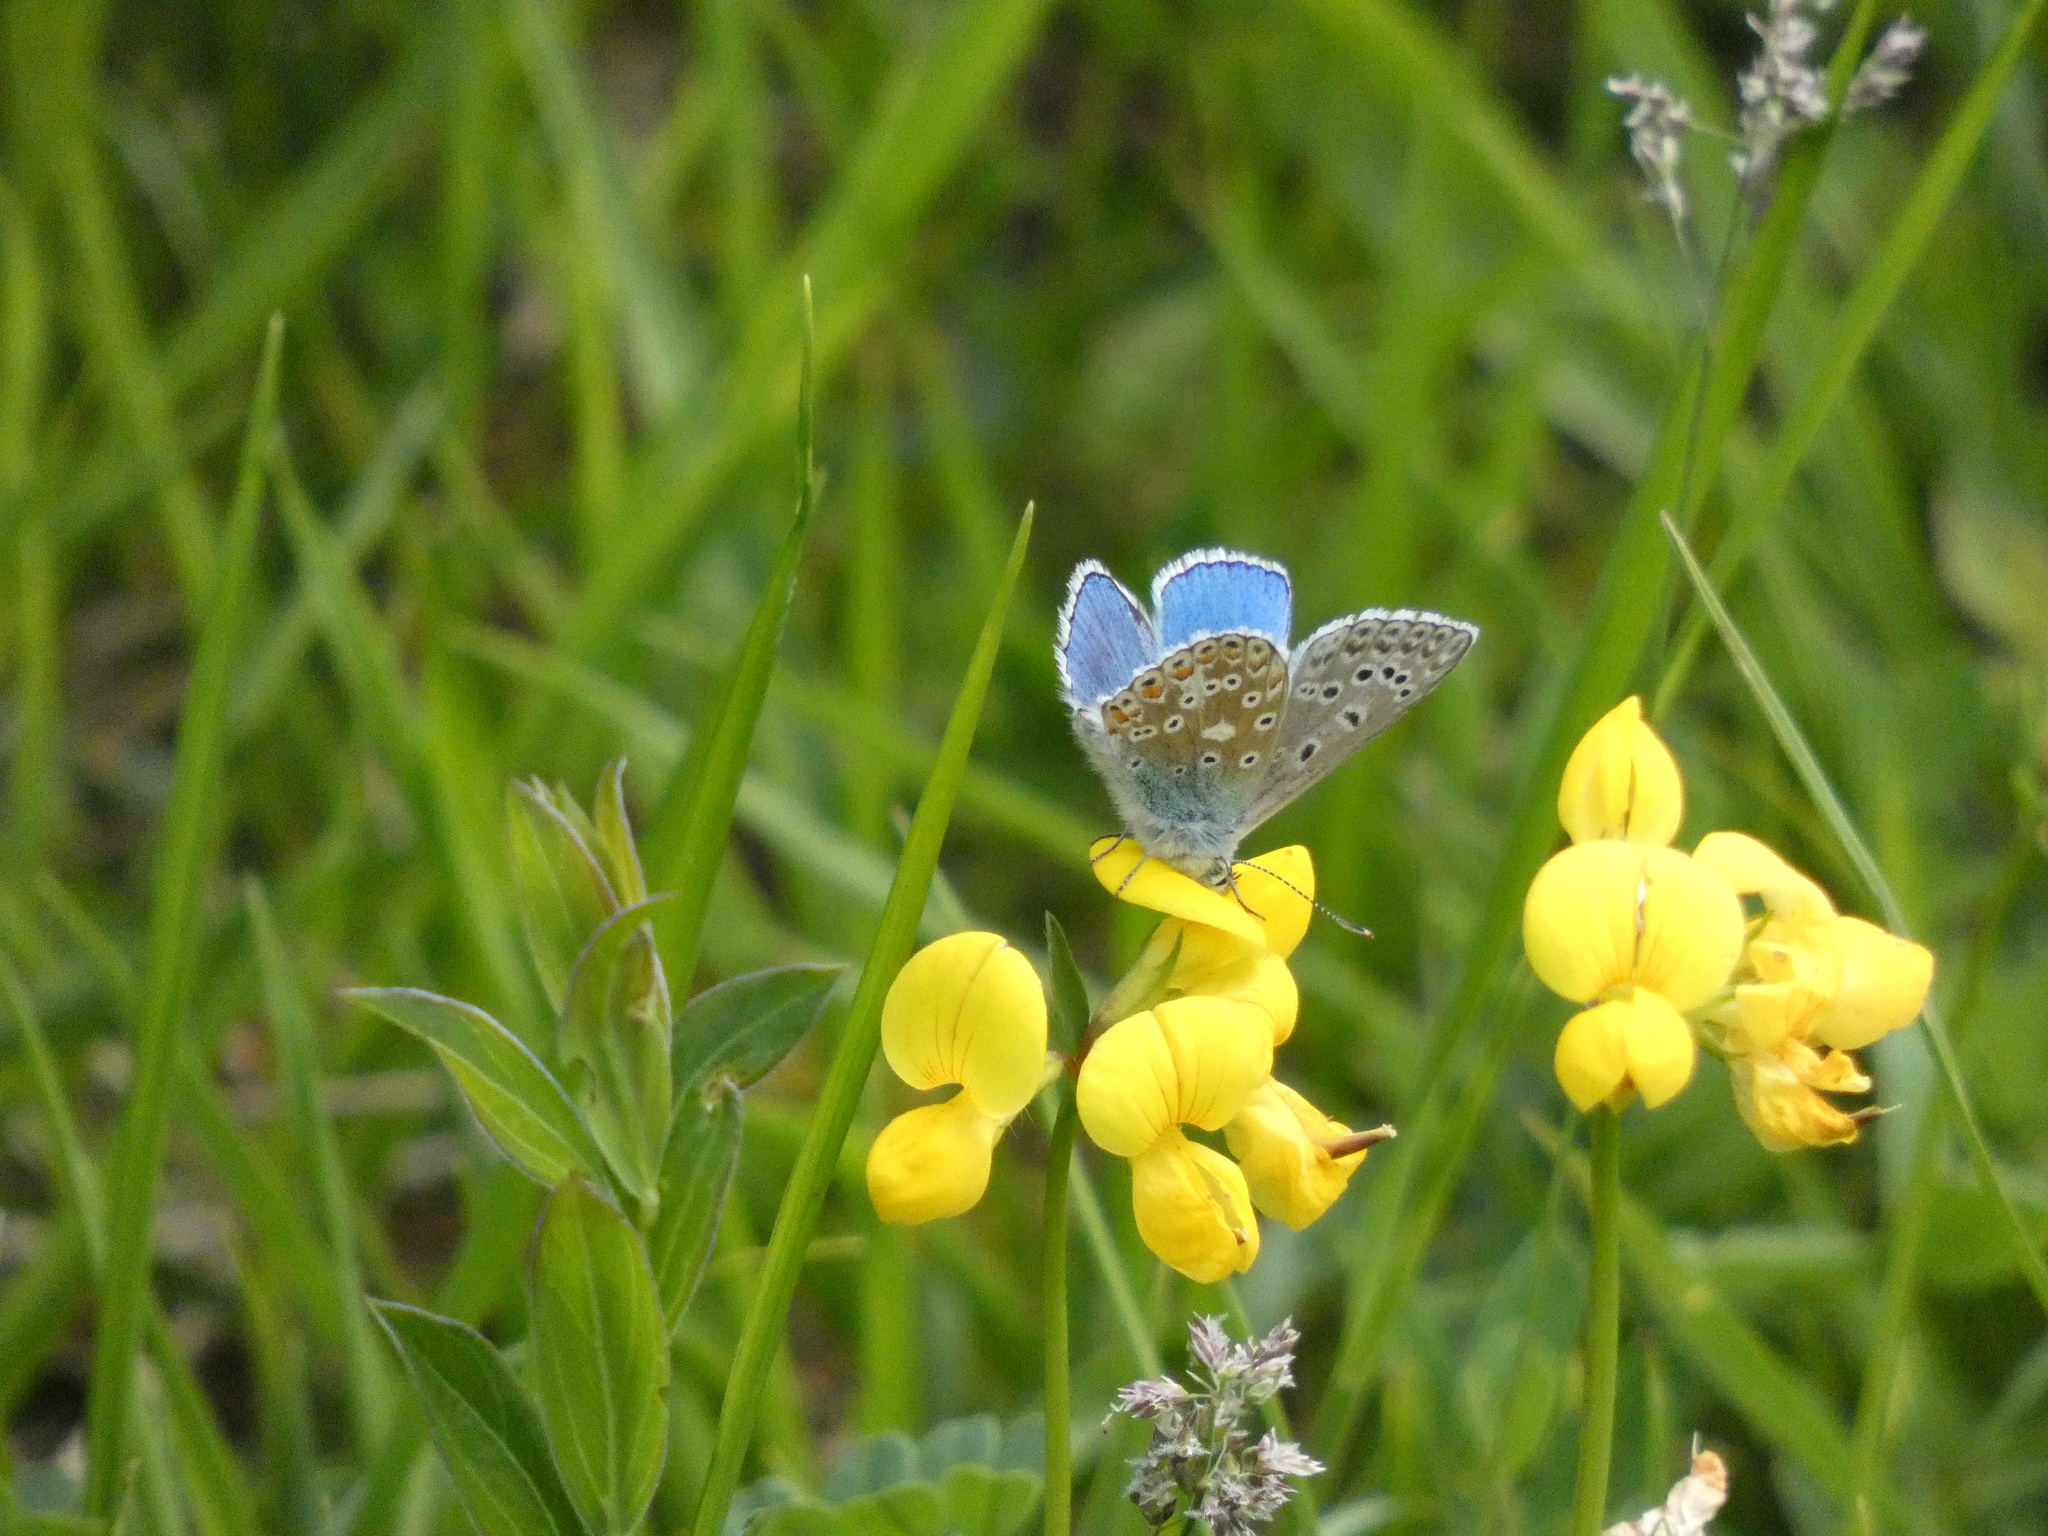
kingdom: Animalia
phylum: Arthropoda
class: Insecta
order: Lepidoptera
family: Lycaenidae
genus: Lysandra
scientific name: Lysandra bellargus
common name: Adonis blue
